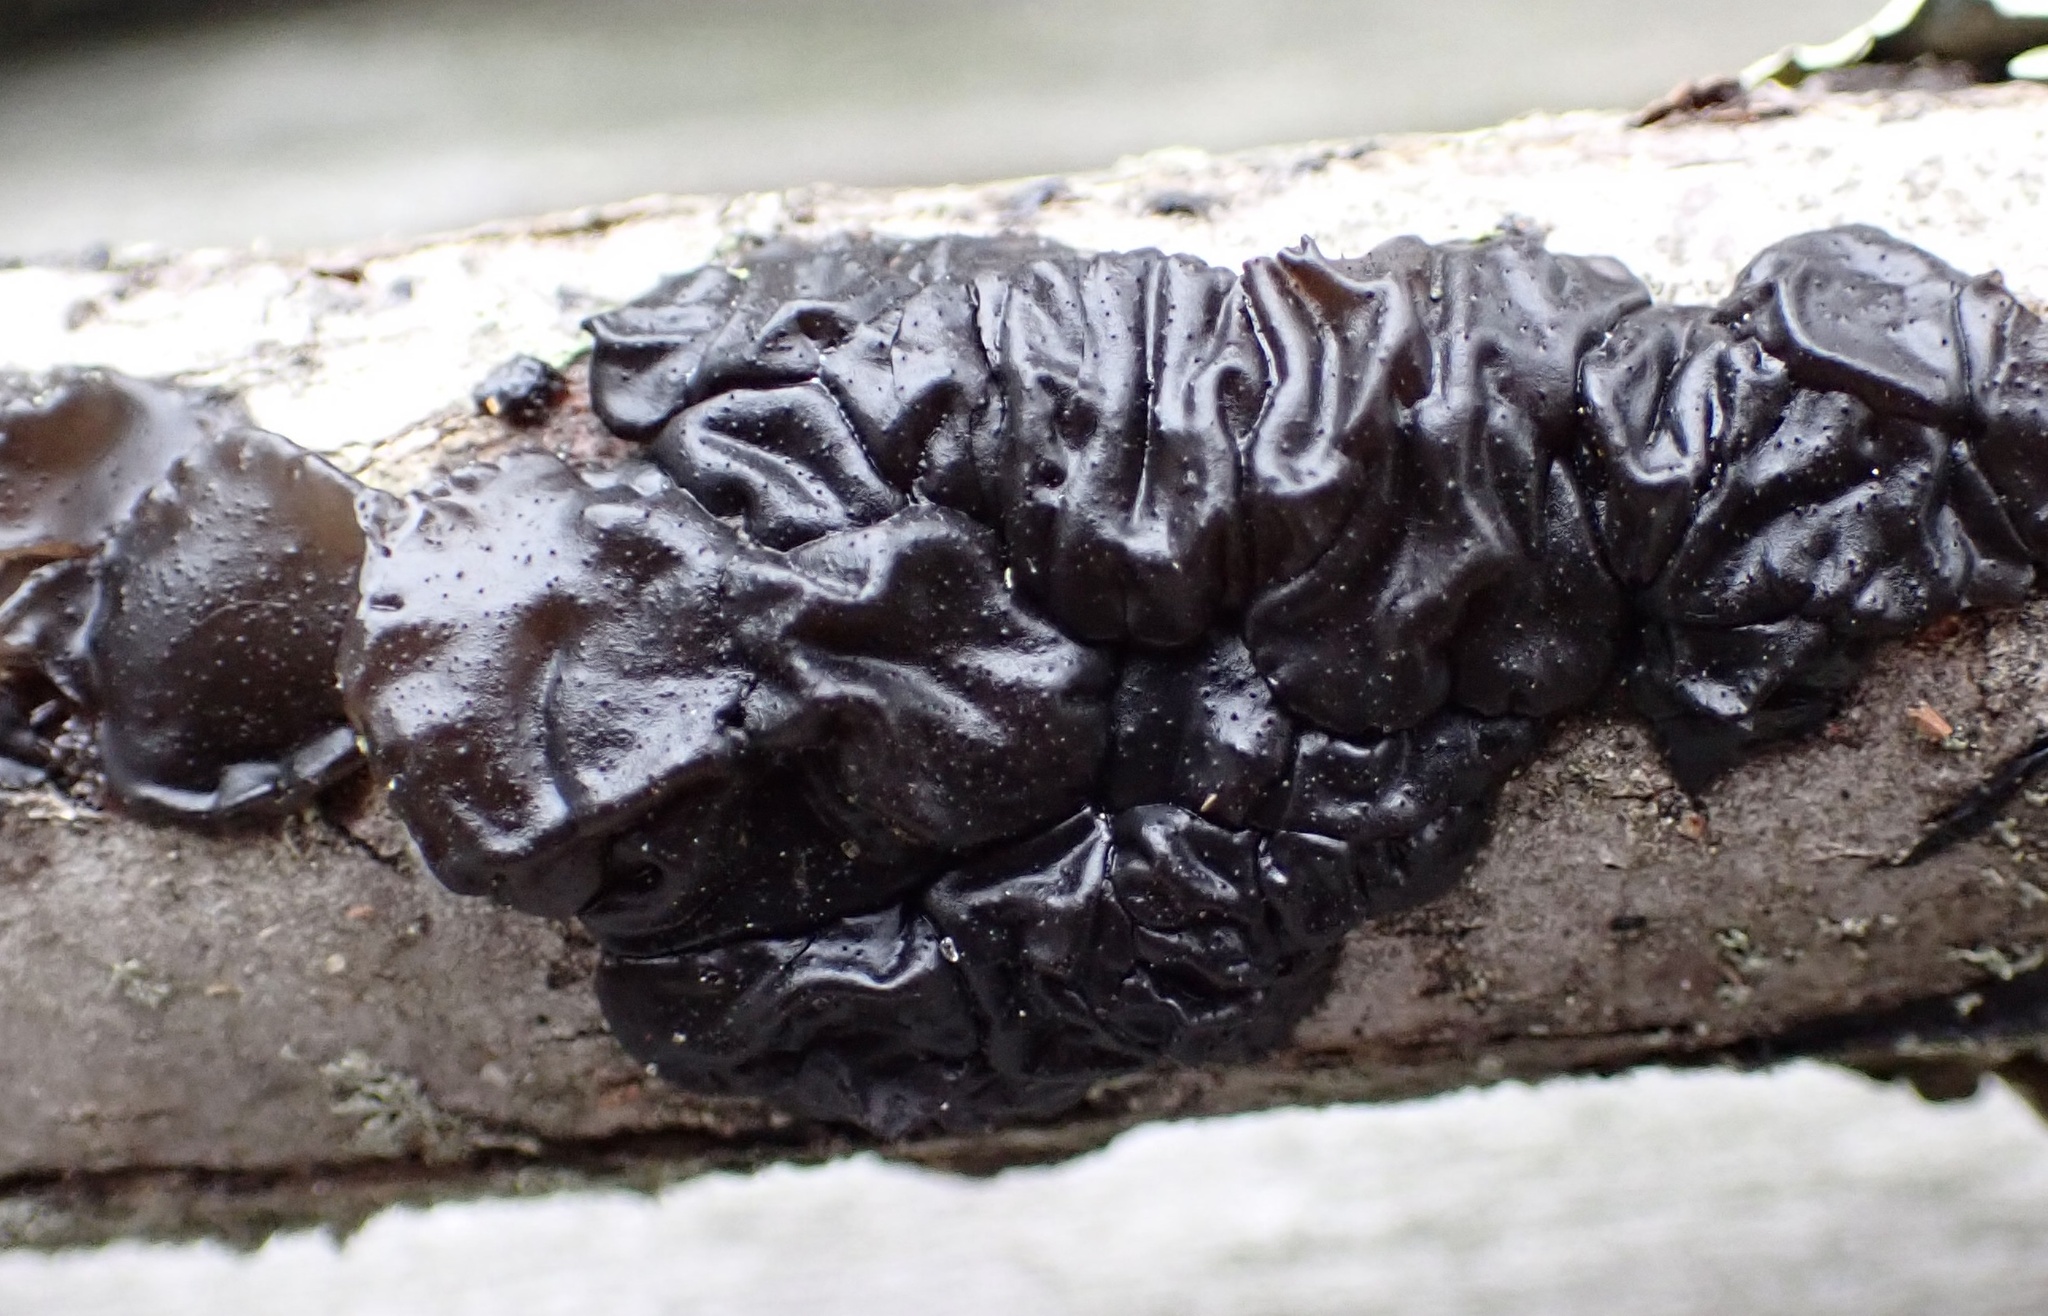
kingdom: Fungi
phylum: Basidiomycota
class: Agaricomycetes
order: Auriculariales
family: Auriculariaceae
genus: Exidia
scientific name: Exidia glandulosa
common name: Witches' butter
